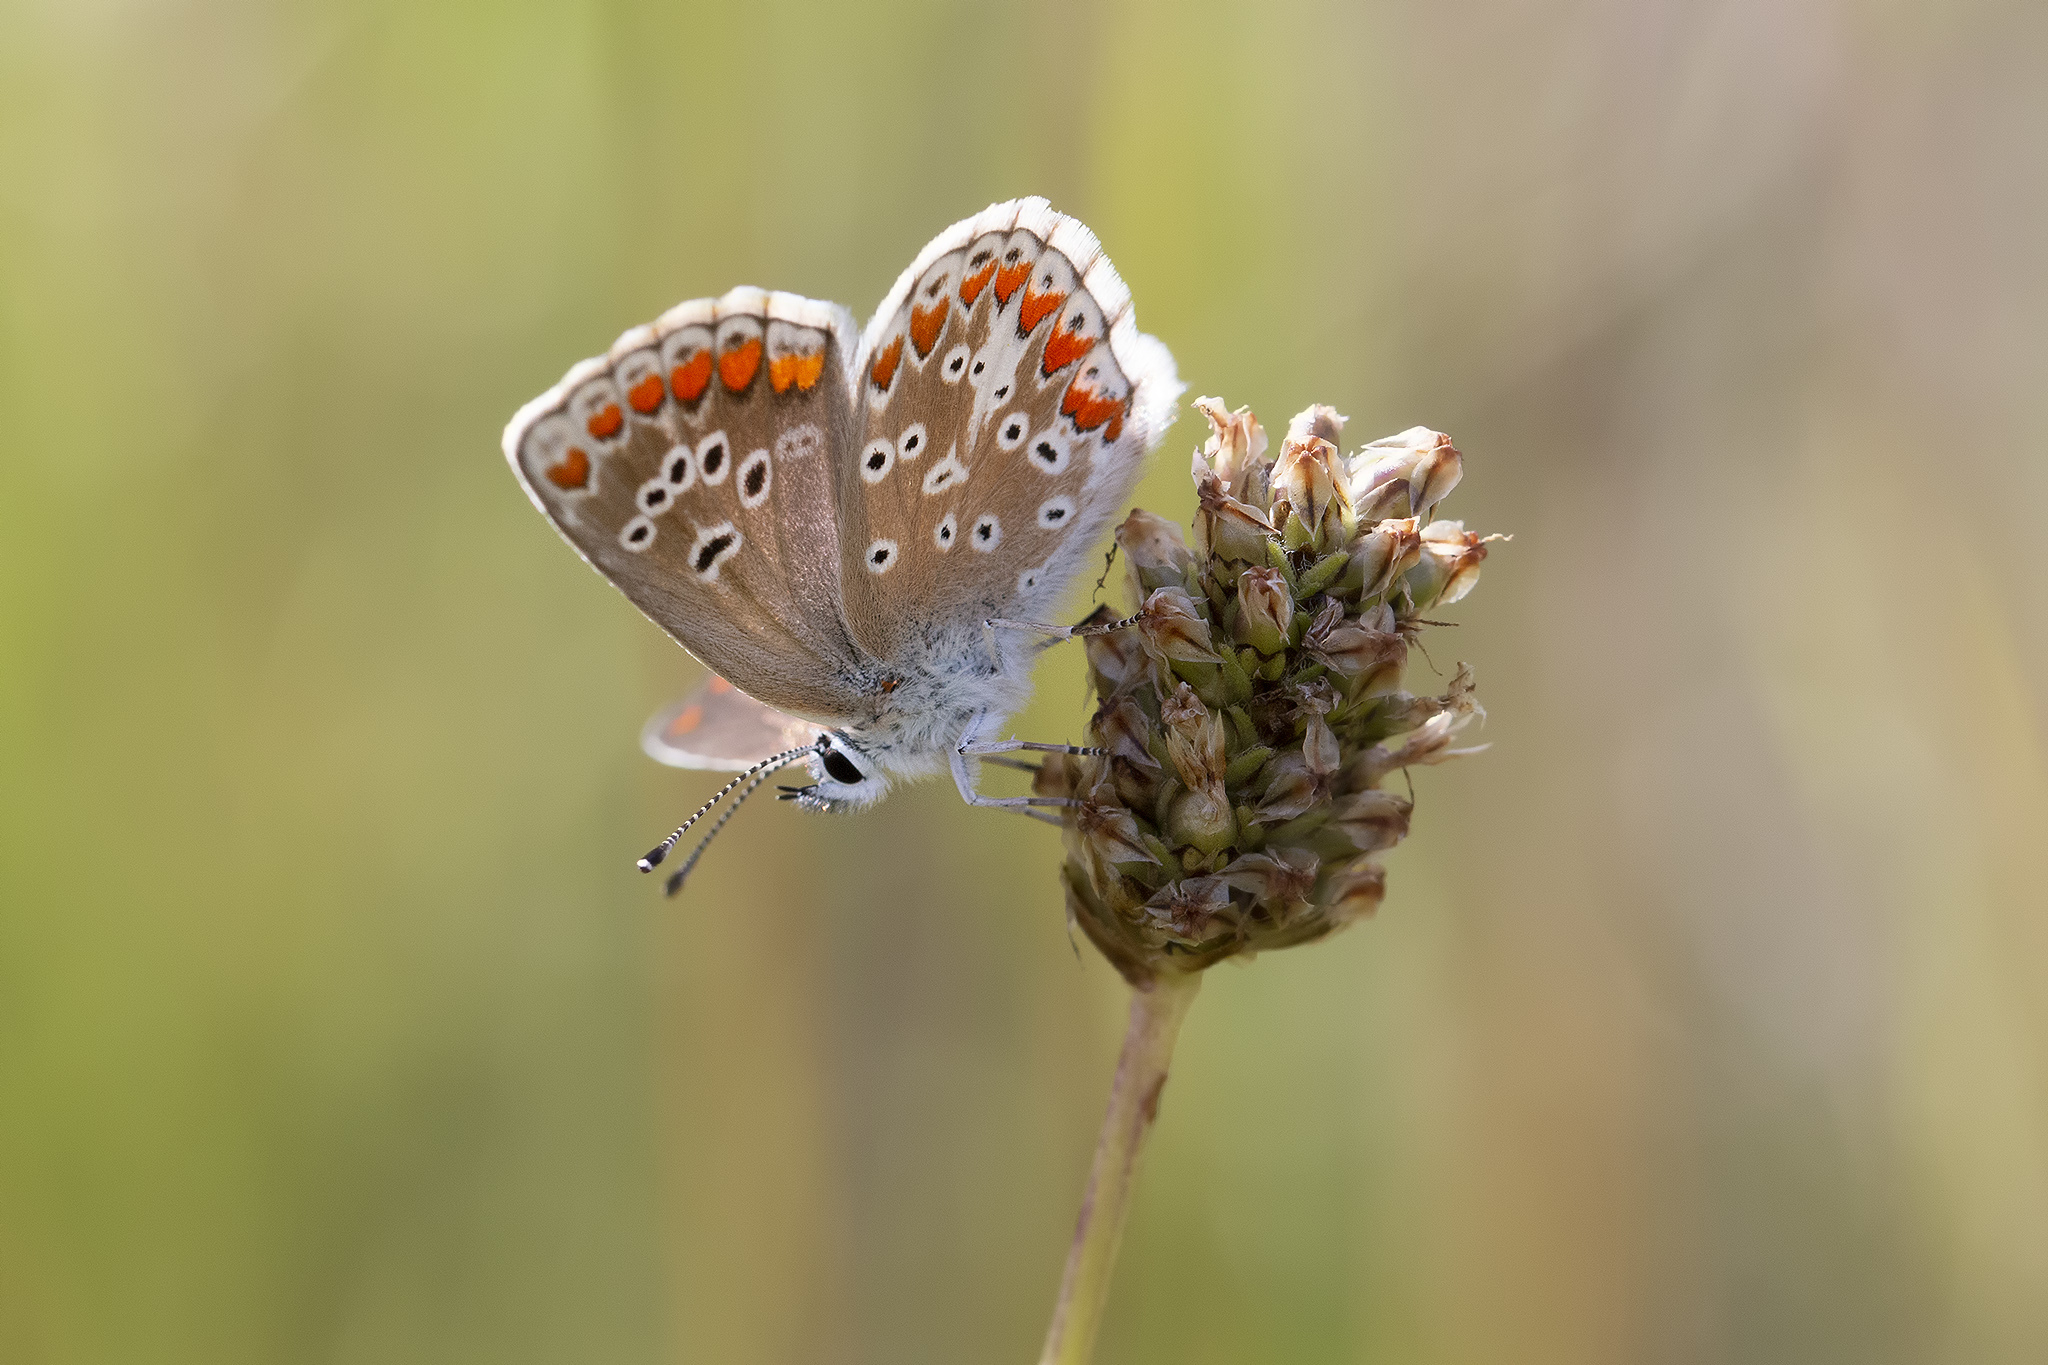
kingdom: Animalia
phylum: Arthropoda
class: Insecta
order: Lepidoptera
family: Lycaenidae
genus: Aricia
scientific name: Aricia agestis
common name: Brown argus
